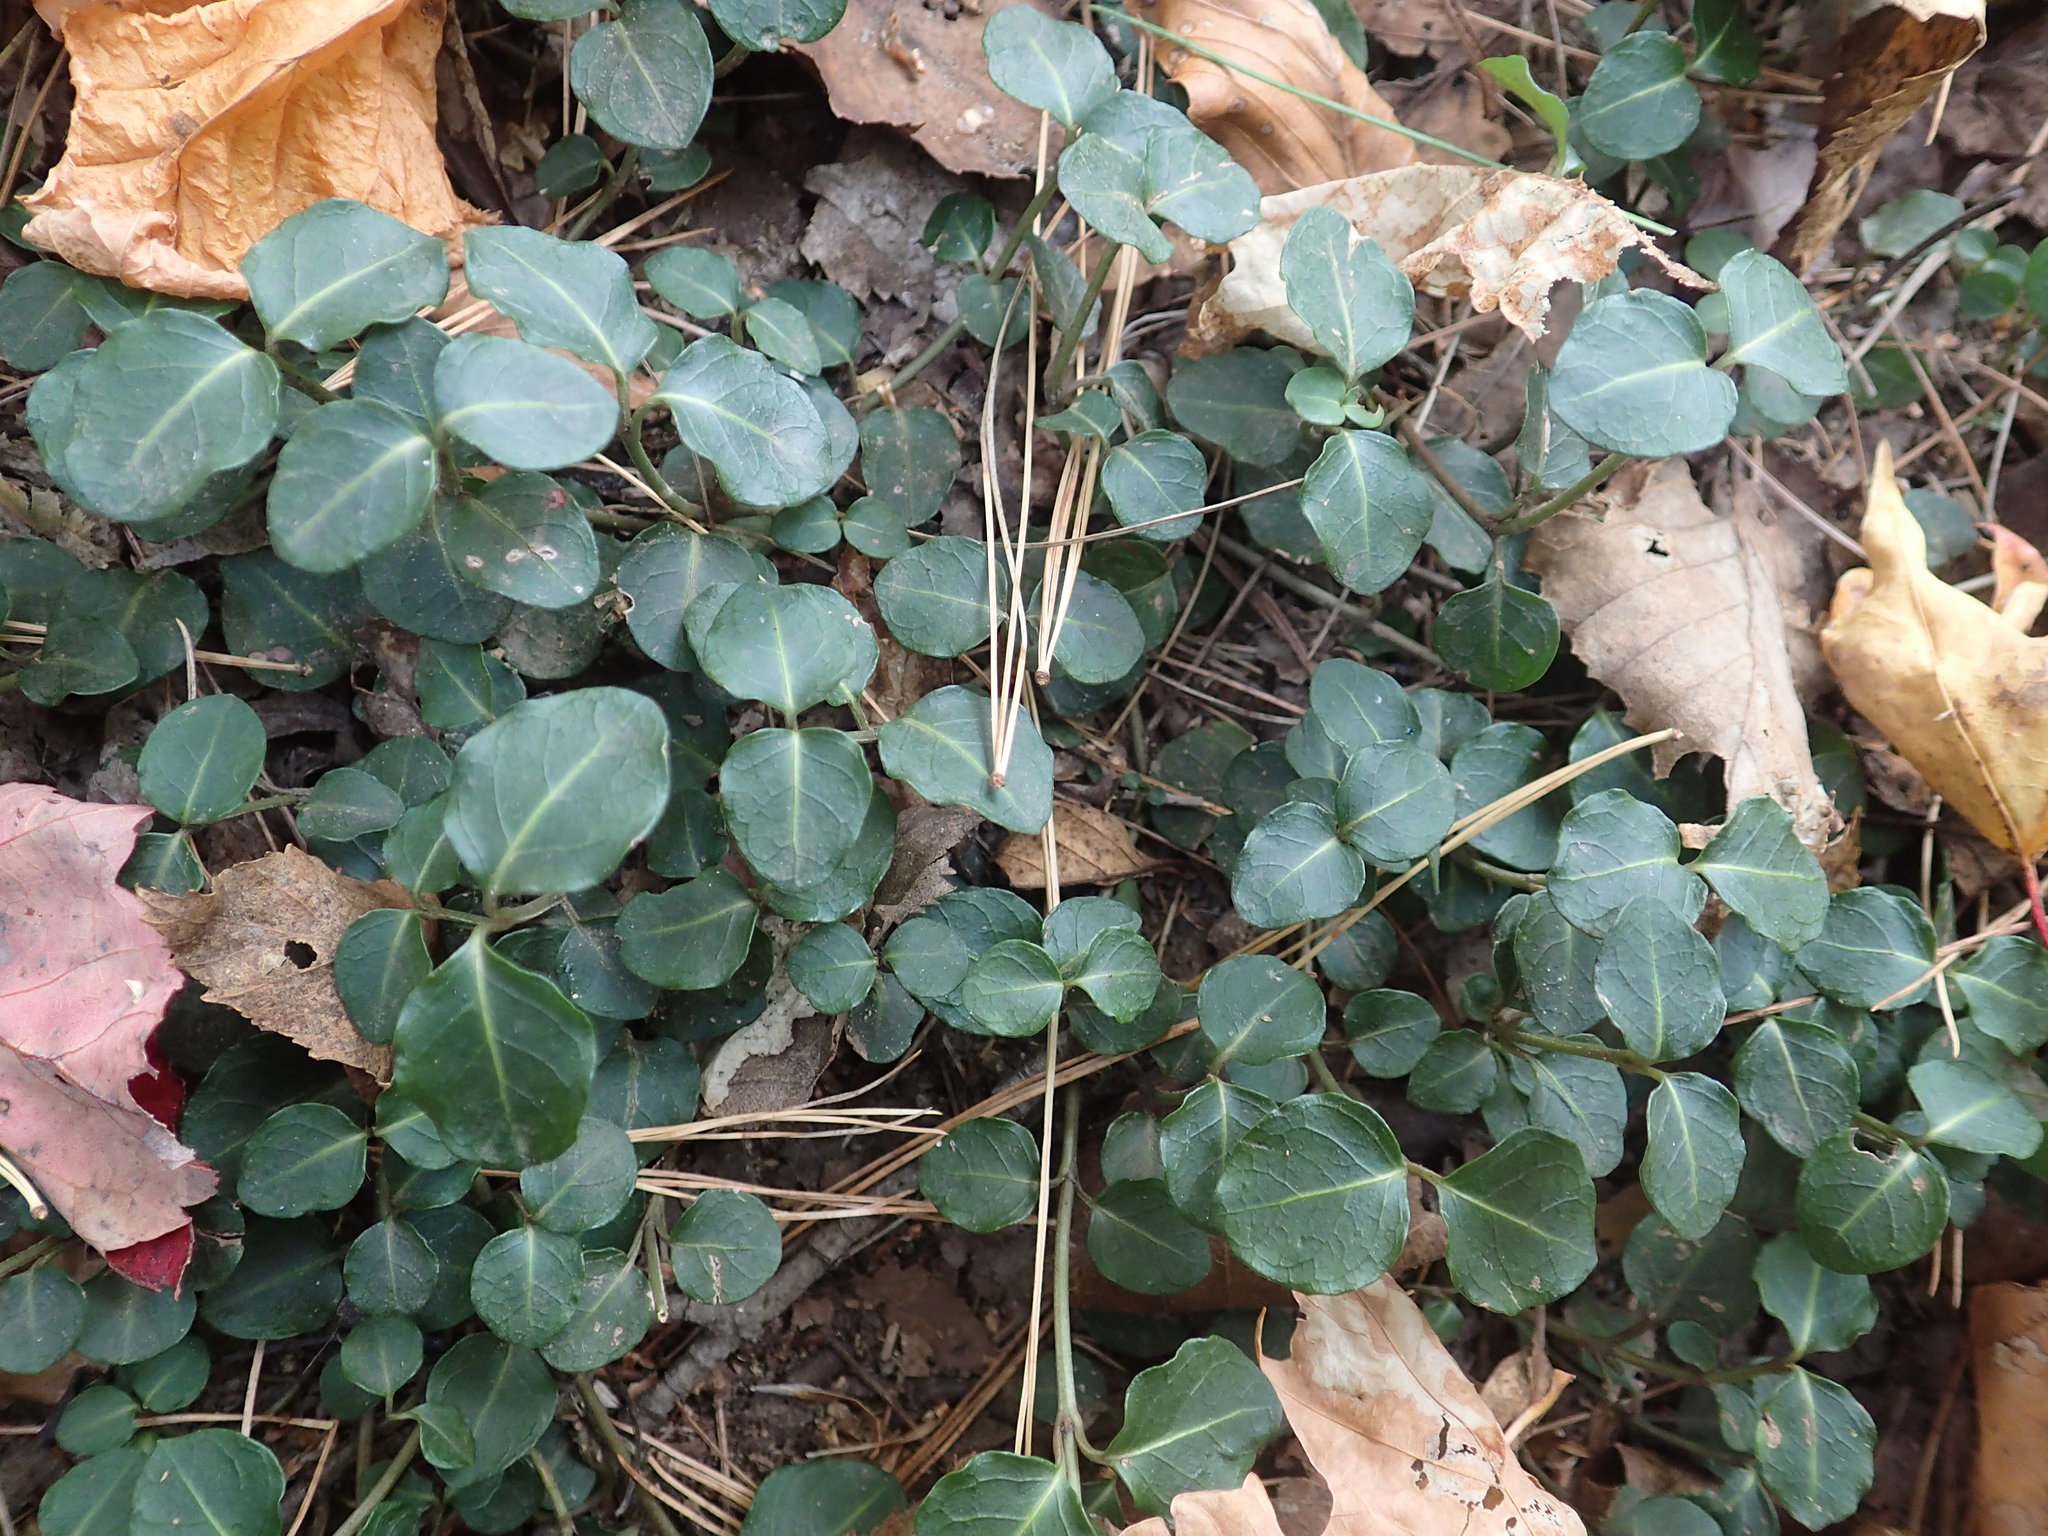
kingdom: Plantae
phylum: Tracheophyta
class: Magnoliopsida
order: Gentianales
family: Rubiaceae
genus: Mitchella
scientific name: Mitchella repens
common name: Partridge-berry
